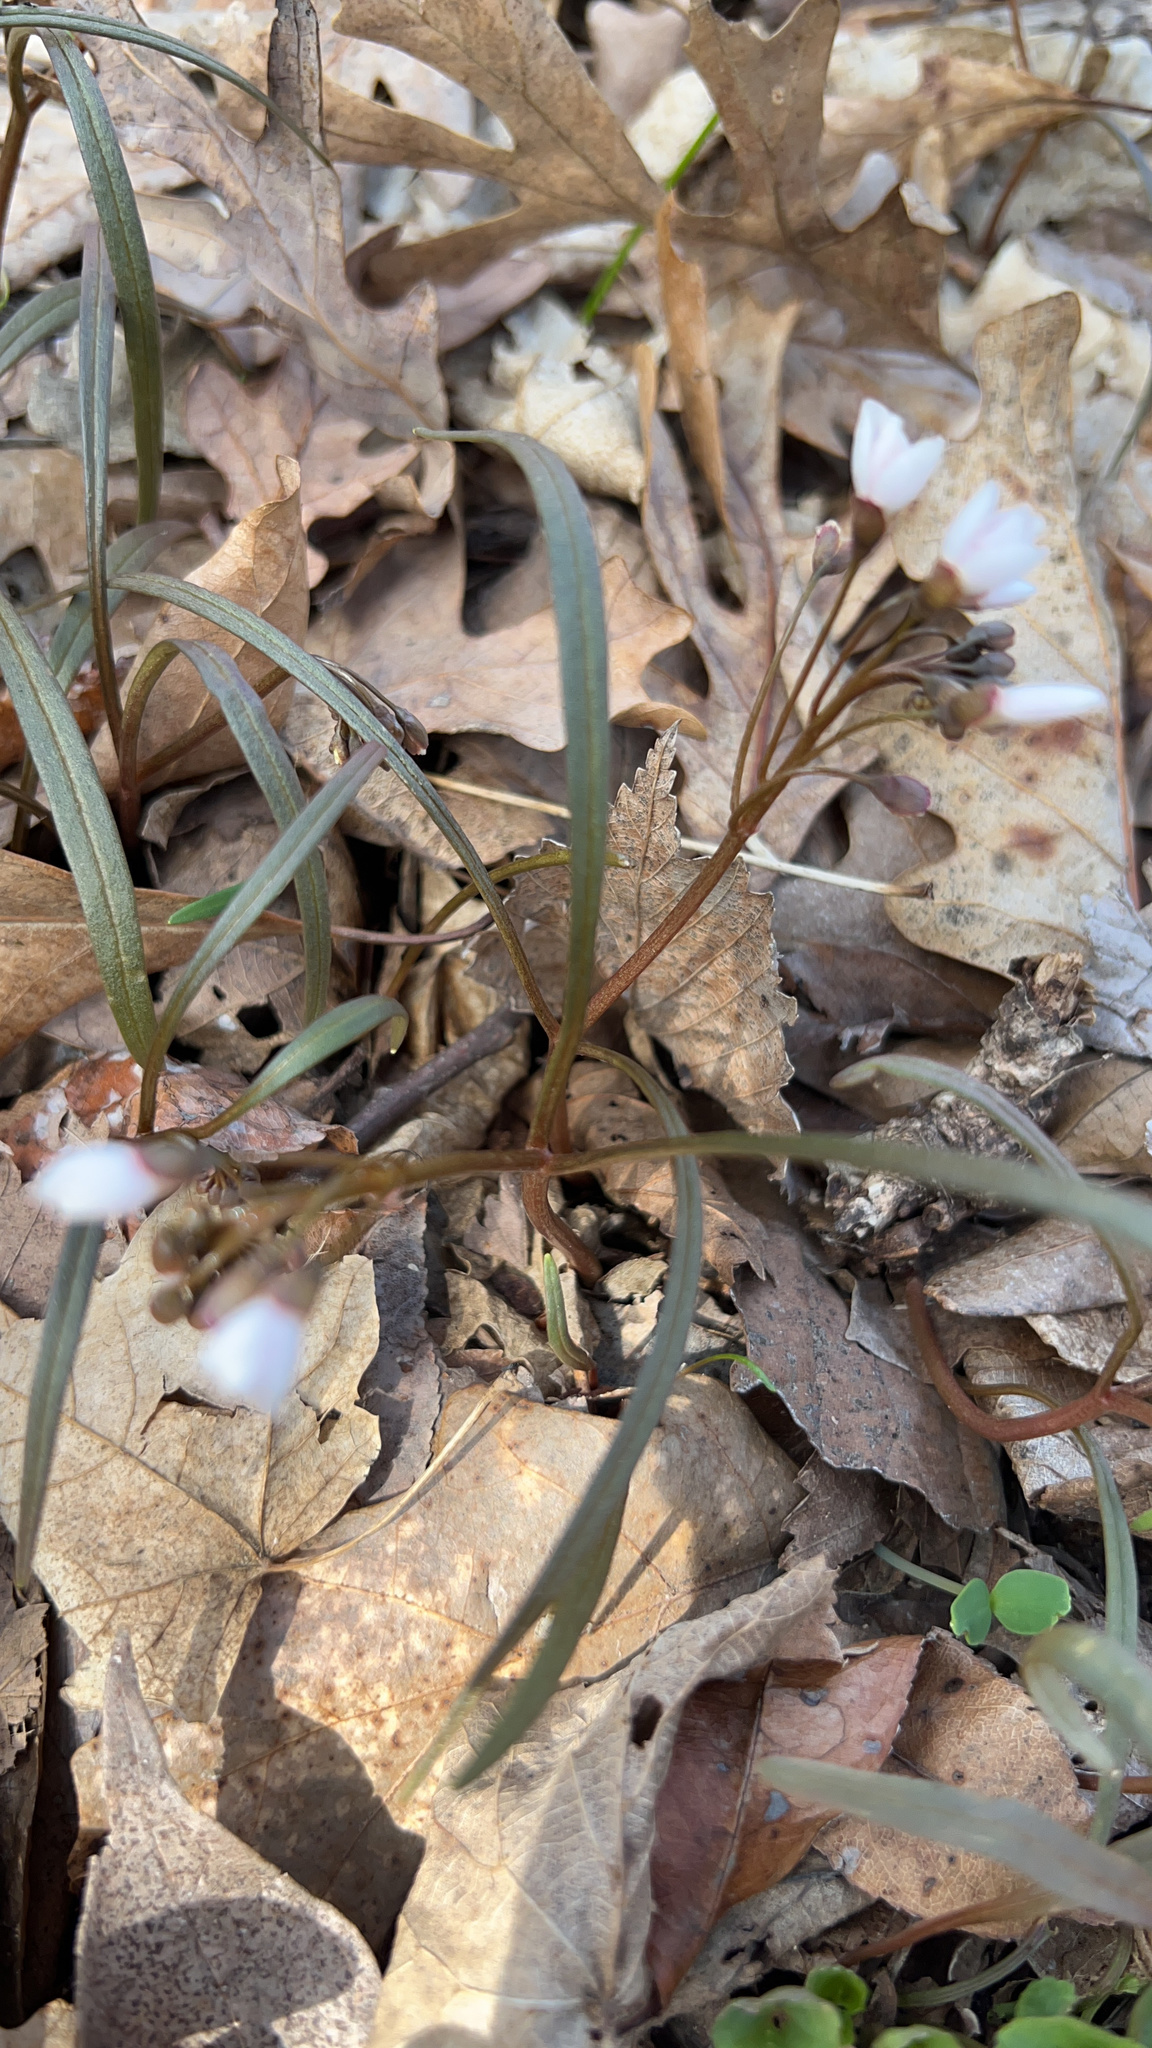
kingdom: Plantae
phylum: Tracheophyta
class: Magnoliopsida
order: Caryophyllales
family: Montiaceae
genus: Claytonia
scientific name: Claytonia virginica
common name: Virginia springbeauty
